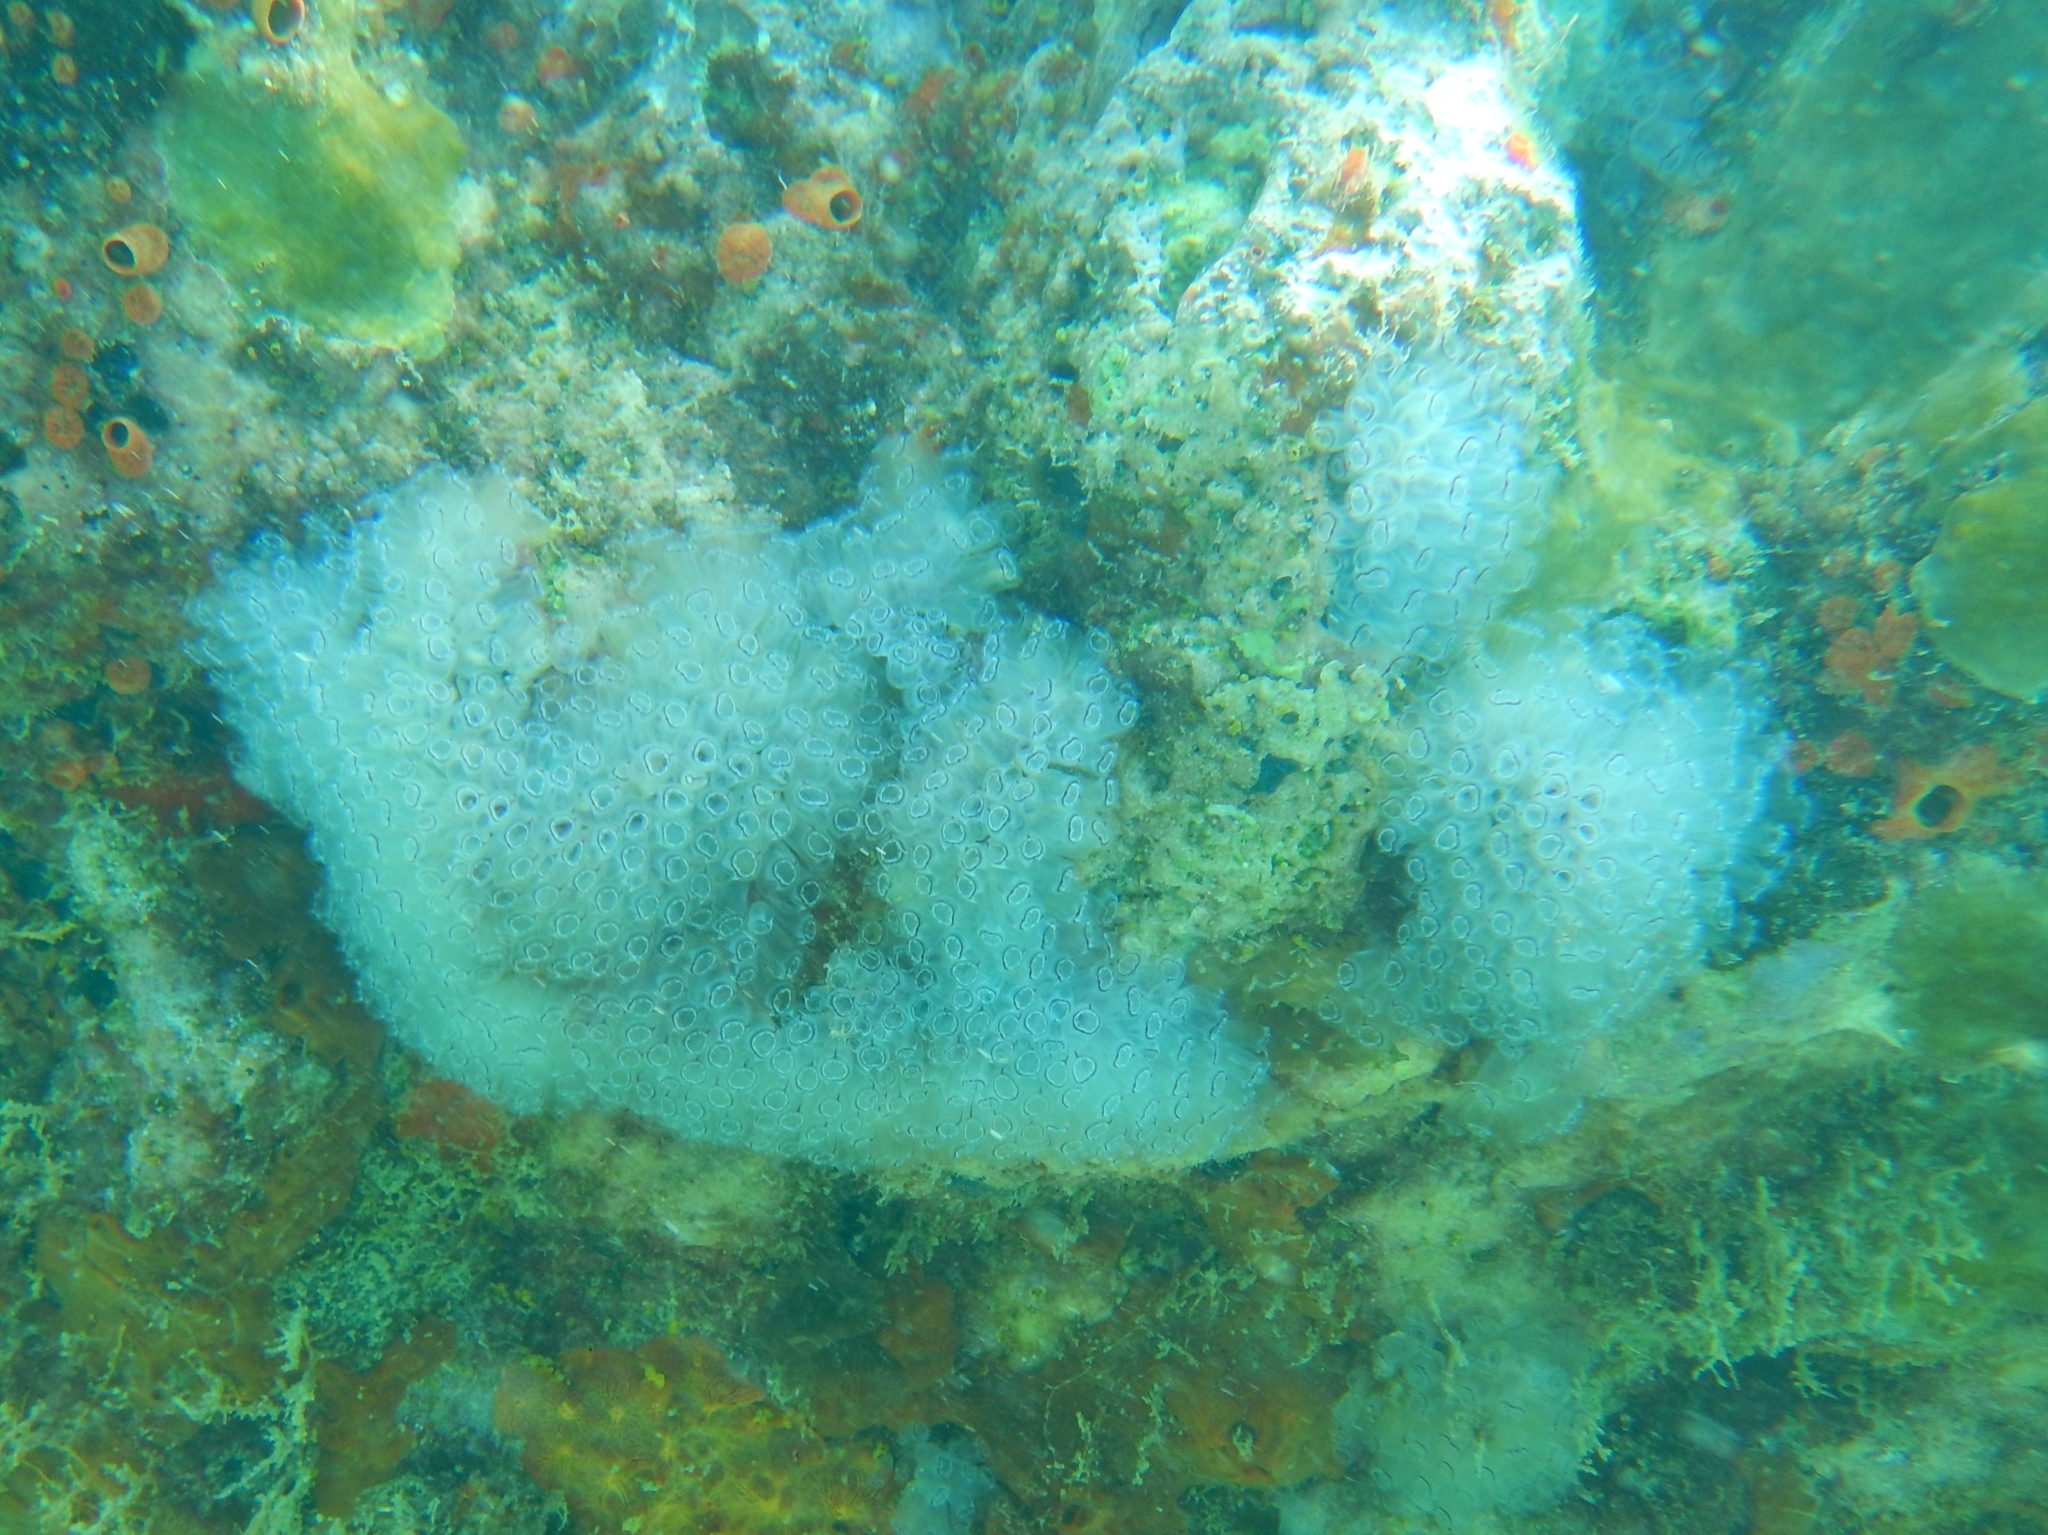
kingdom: Animalia
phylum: Chordata
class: Ascidiacea
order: Aplousobranchia
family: Clavelinidae
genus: Clavelina
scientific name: Clavelina picta
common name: Painted tunicate
